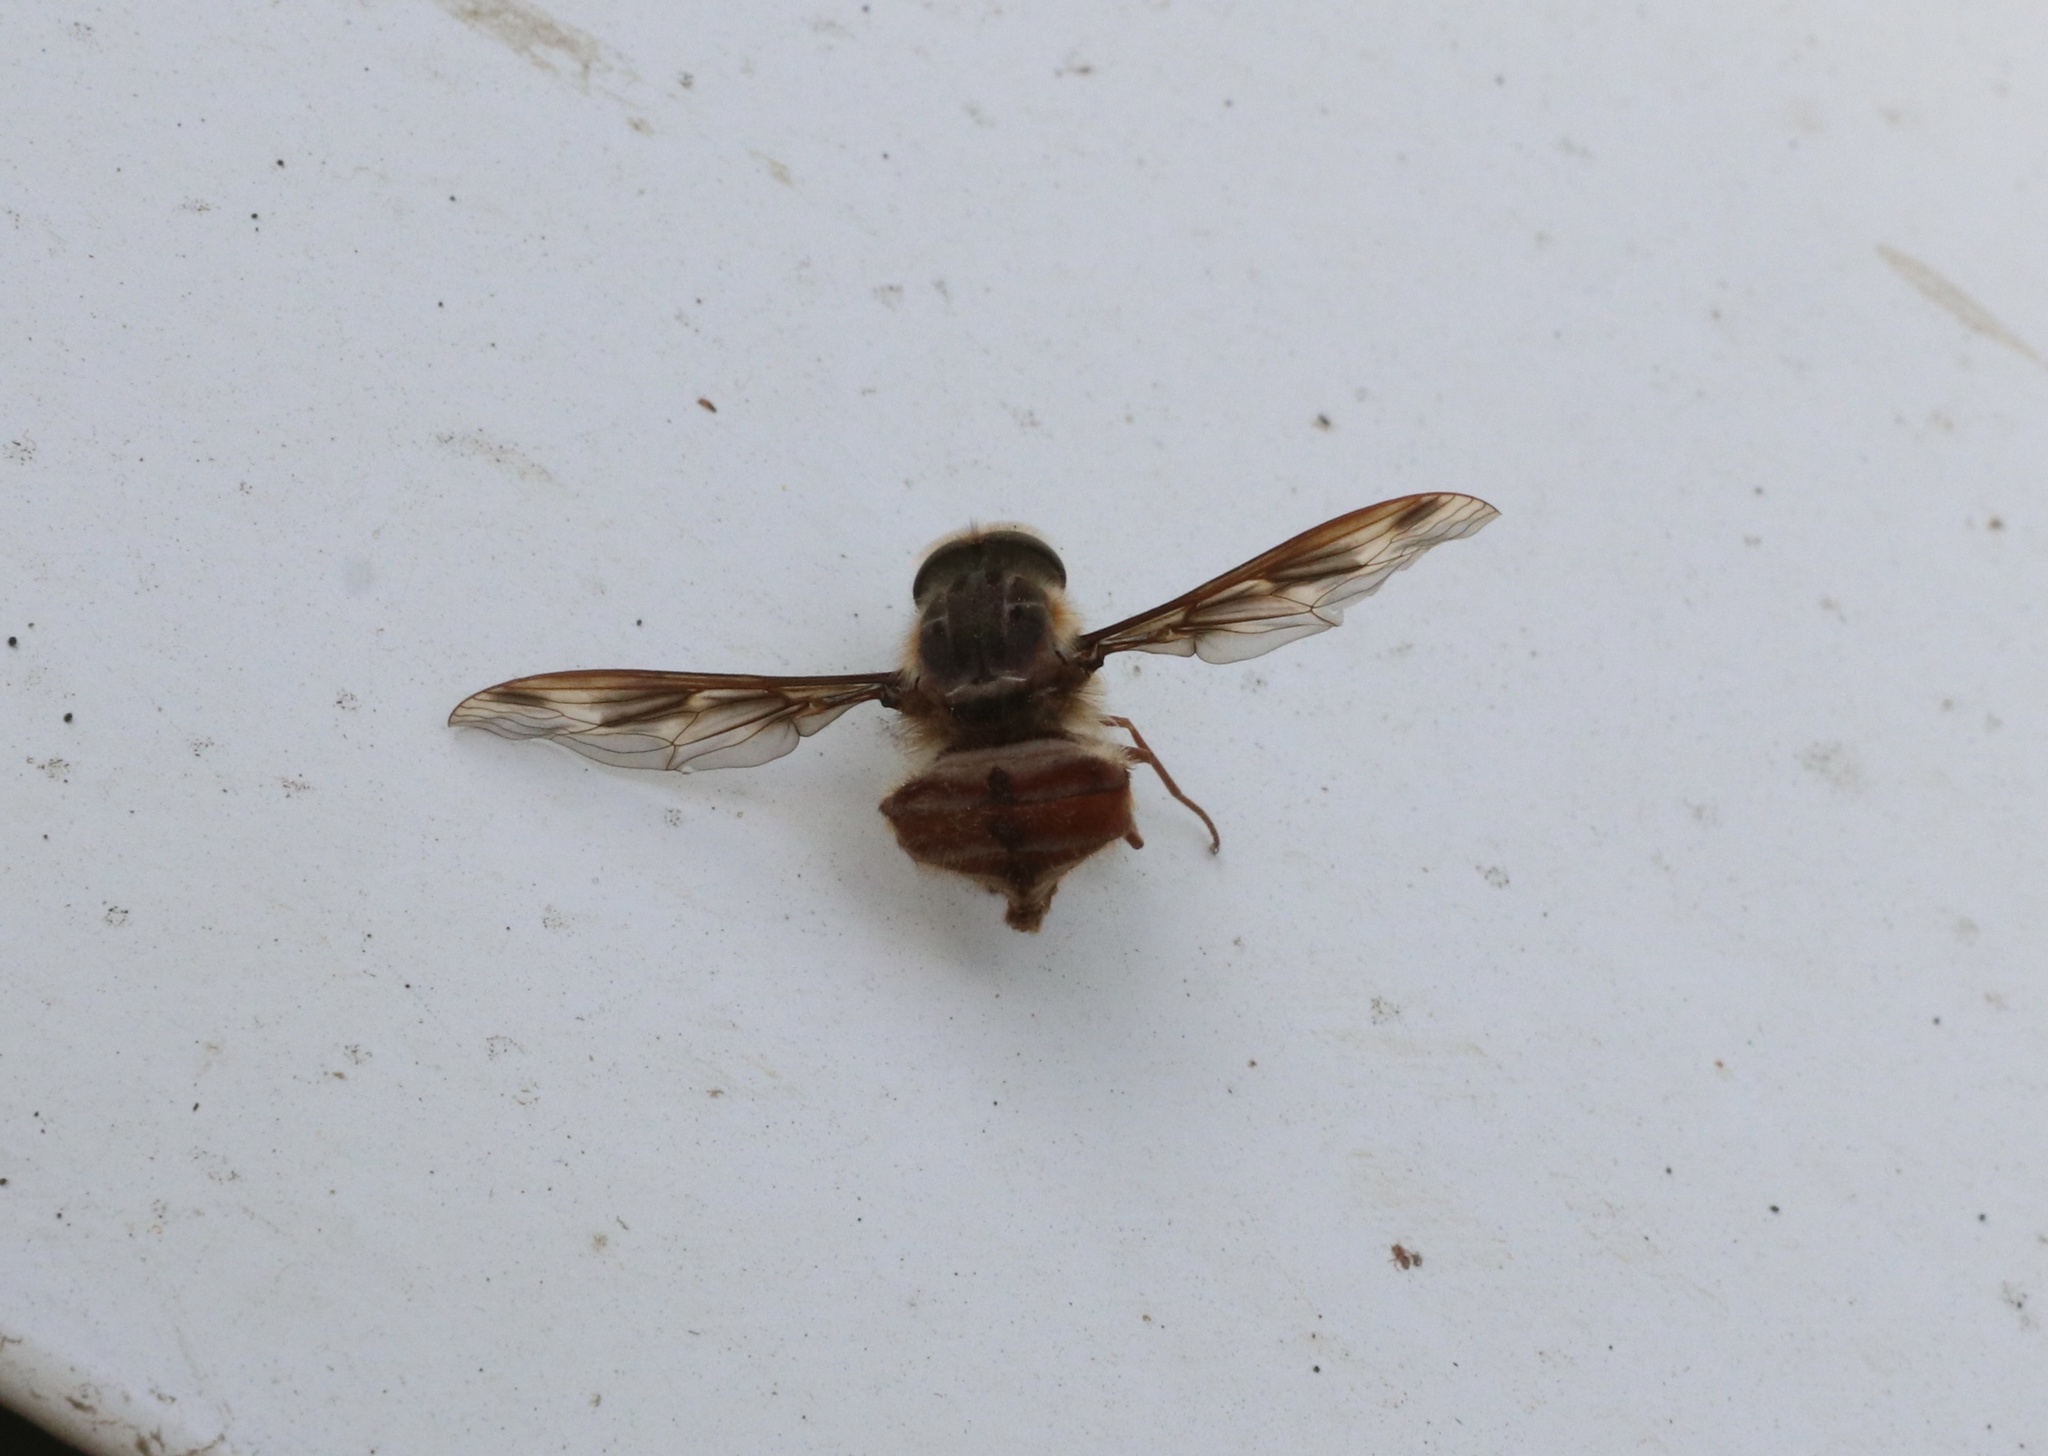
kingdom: Animalia
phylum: Arthropoda
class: Insecta
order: Diptera
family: Nemestrinidae
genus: Trichophthalma
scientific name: Trichophthalma nubipennis
